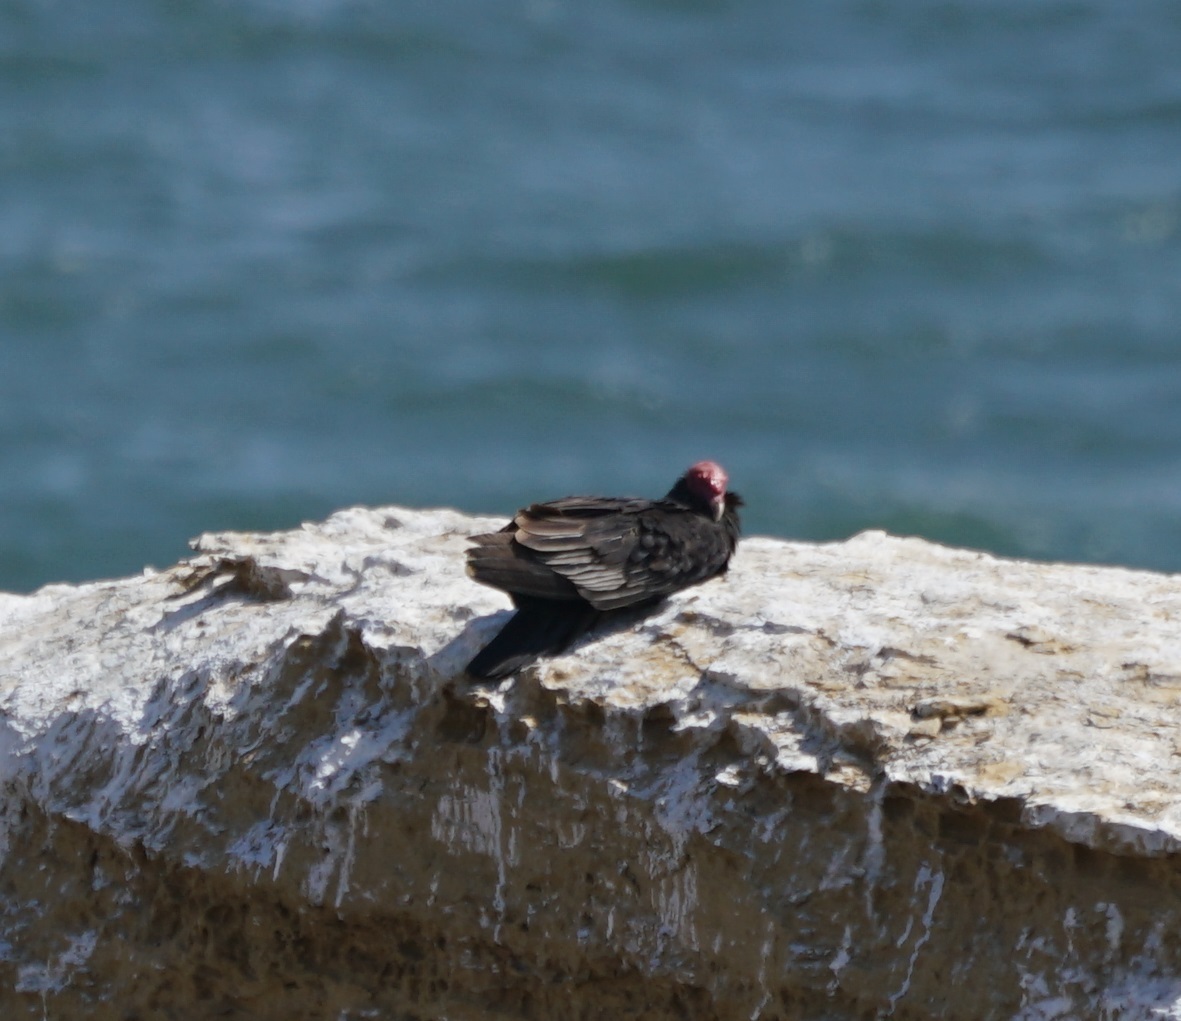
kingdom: Animalia
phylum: Chordata
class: Aves
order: Accipitriformes
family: Cathartidae
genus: Cathartes
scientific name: Cathartes aura
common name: Turkey vulture
